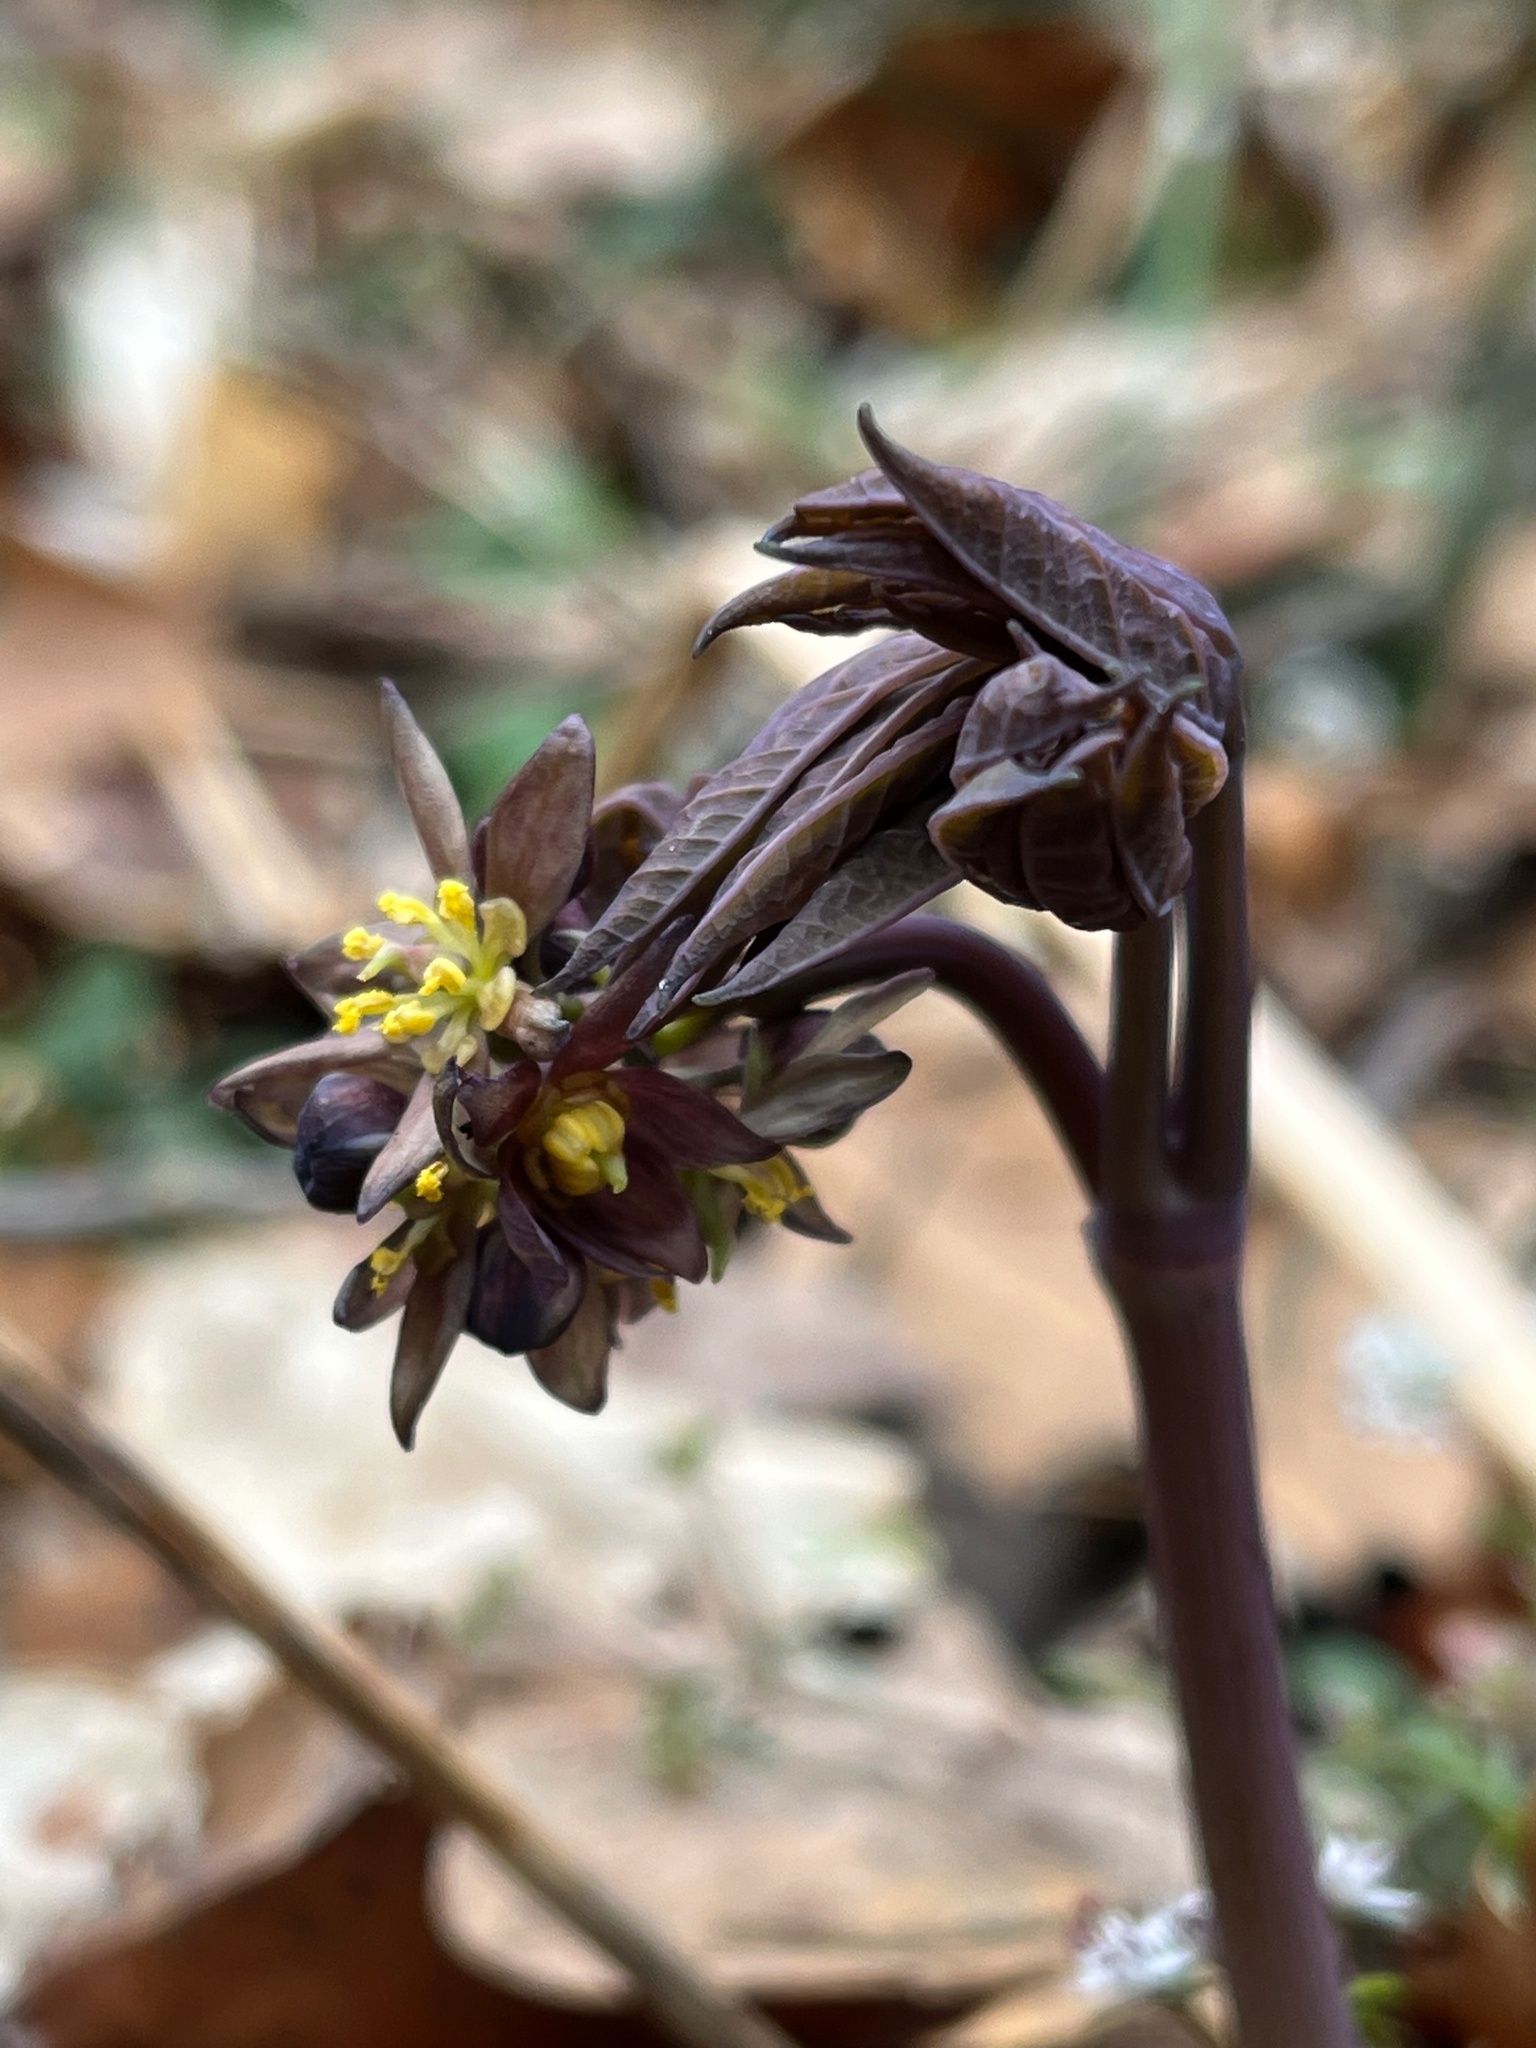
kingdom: Plantae
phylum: Tracheophyta
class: Magnoliopsida
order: Ranunculales
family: Berberidaceae
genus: Caulophyllum
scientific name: Caulophyllum giganteum
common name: Blue cohosh
